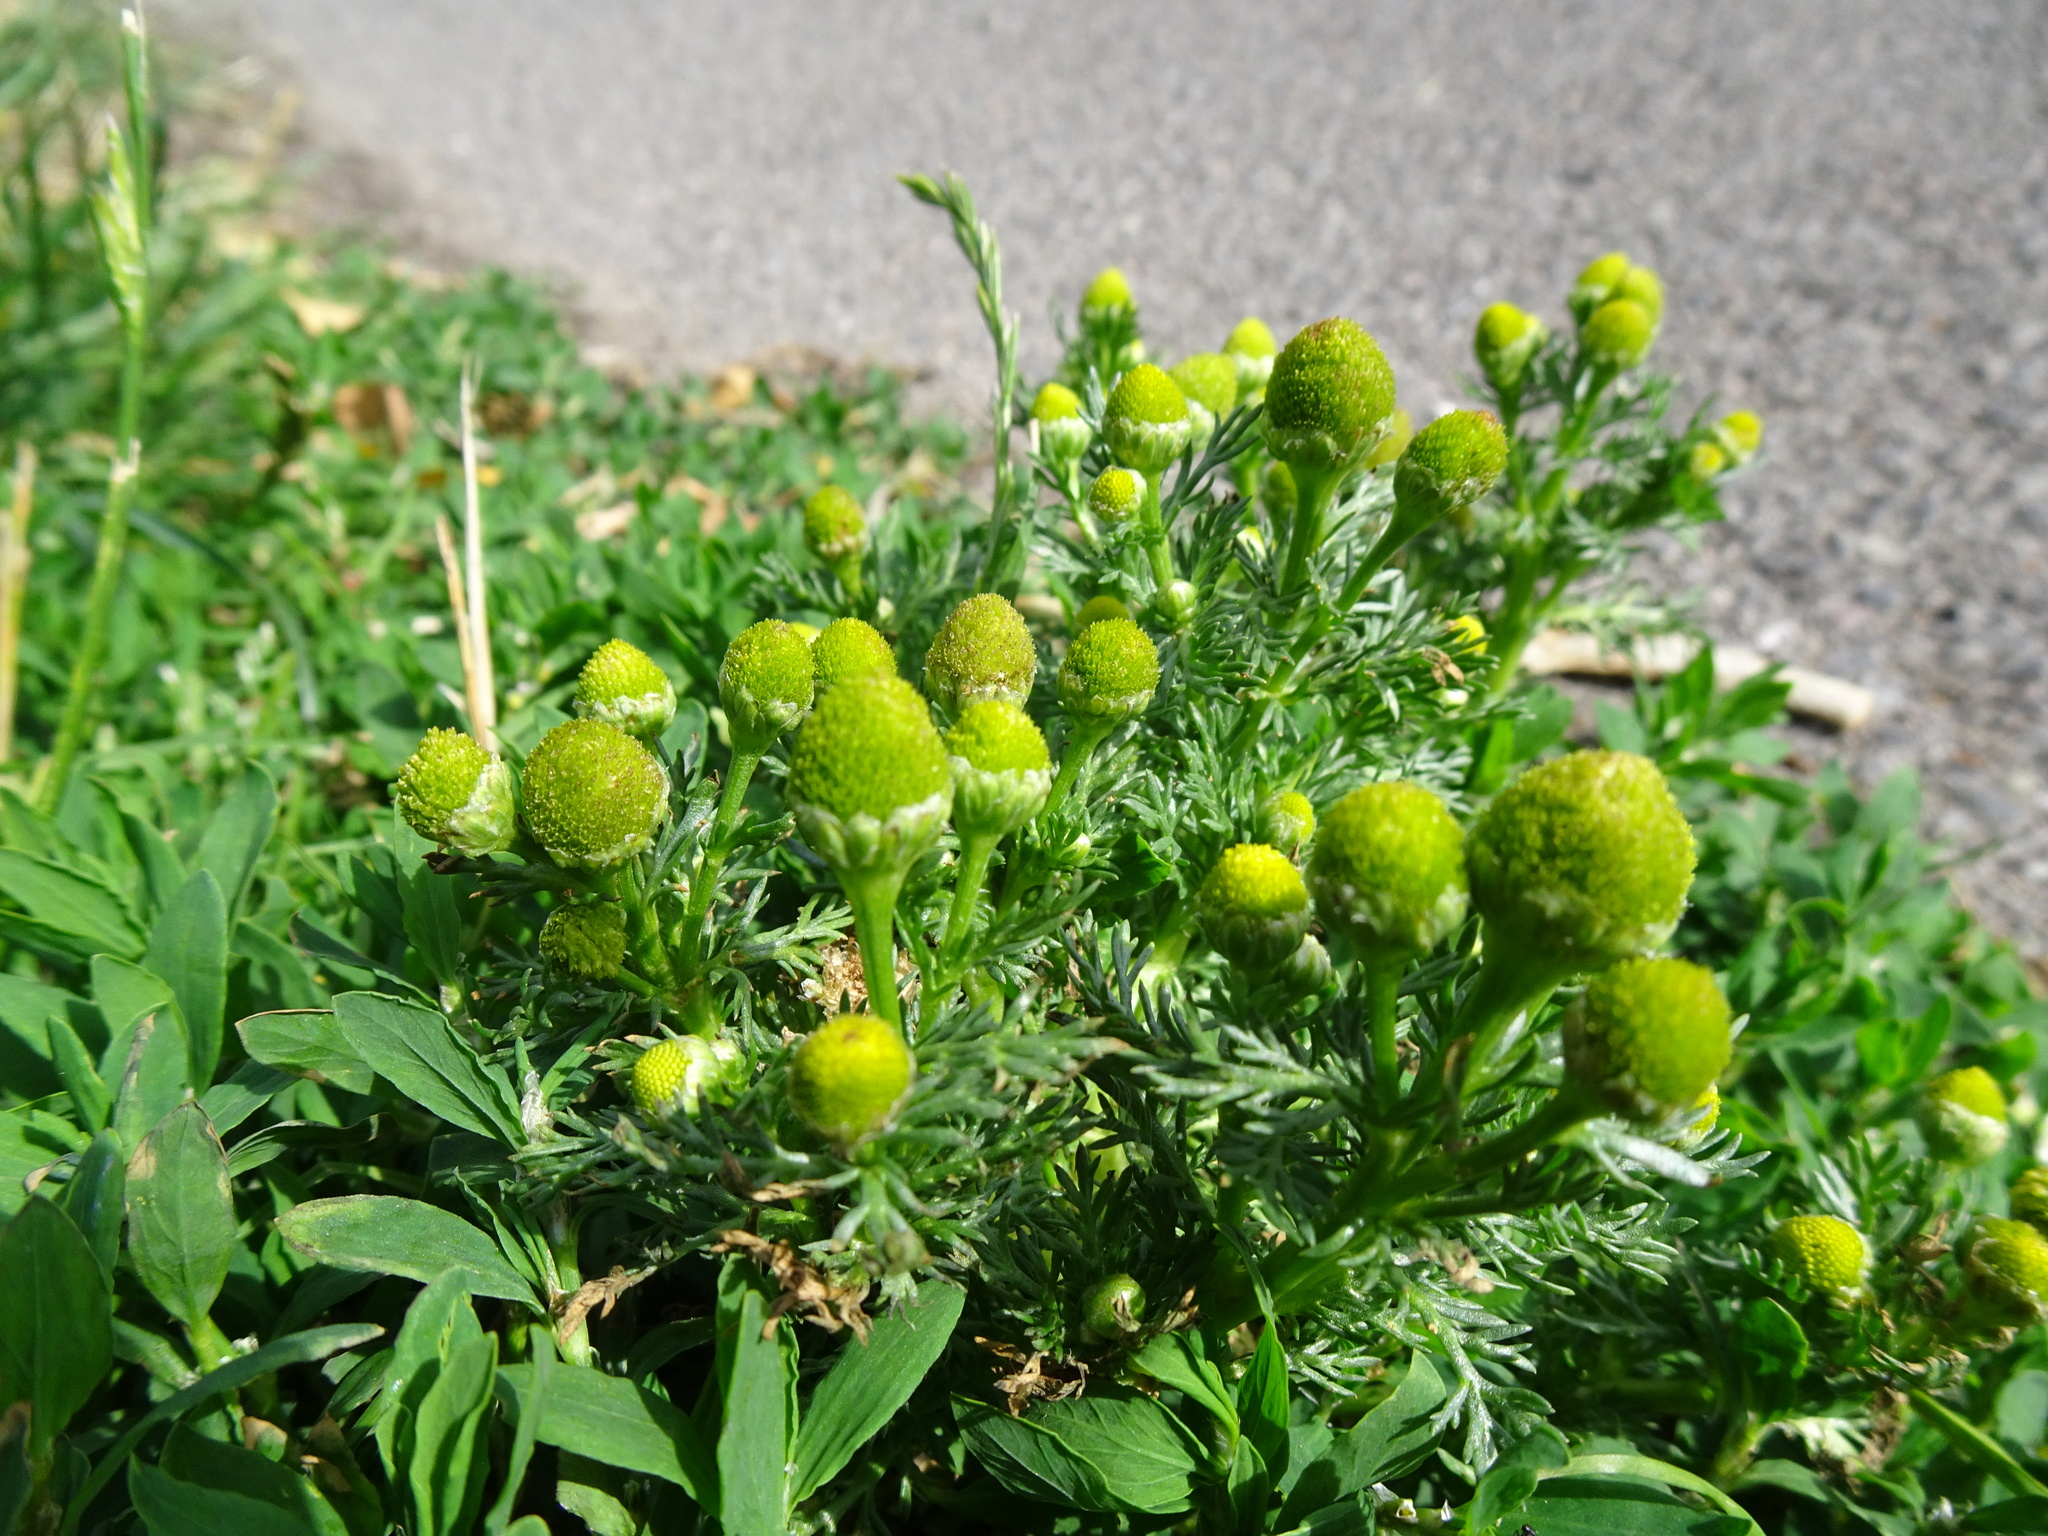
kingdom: Plantae
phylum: Tracheophyta
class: Magnoliopsida
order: Asterales
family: Asteraceae
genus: Matricaria
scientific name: Matricaria discoidea
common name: Disc mayweed
